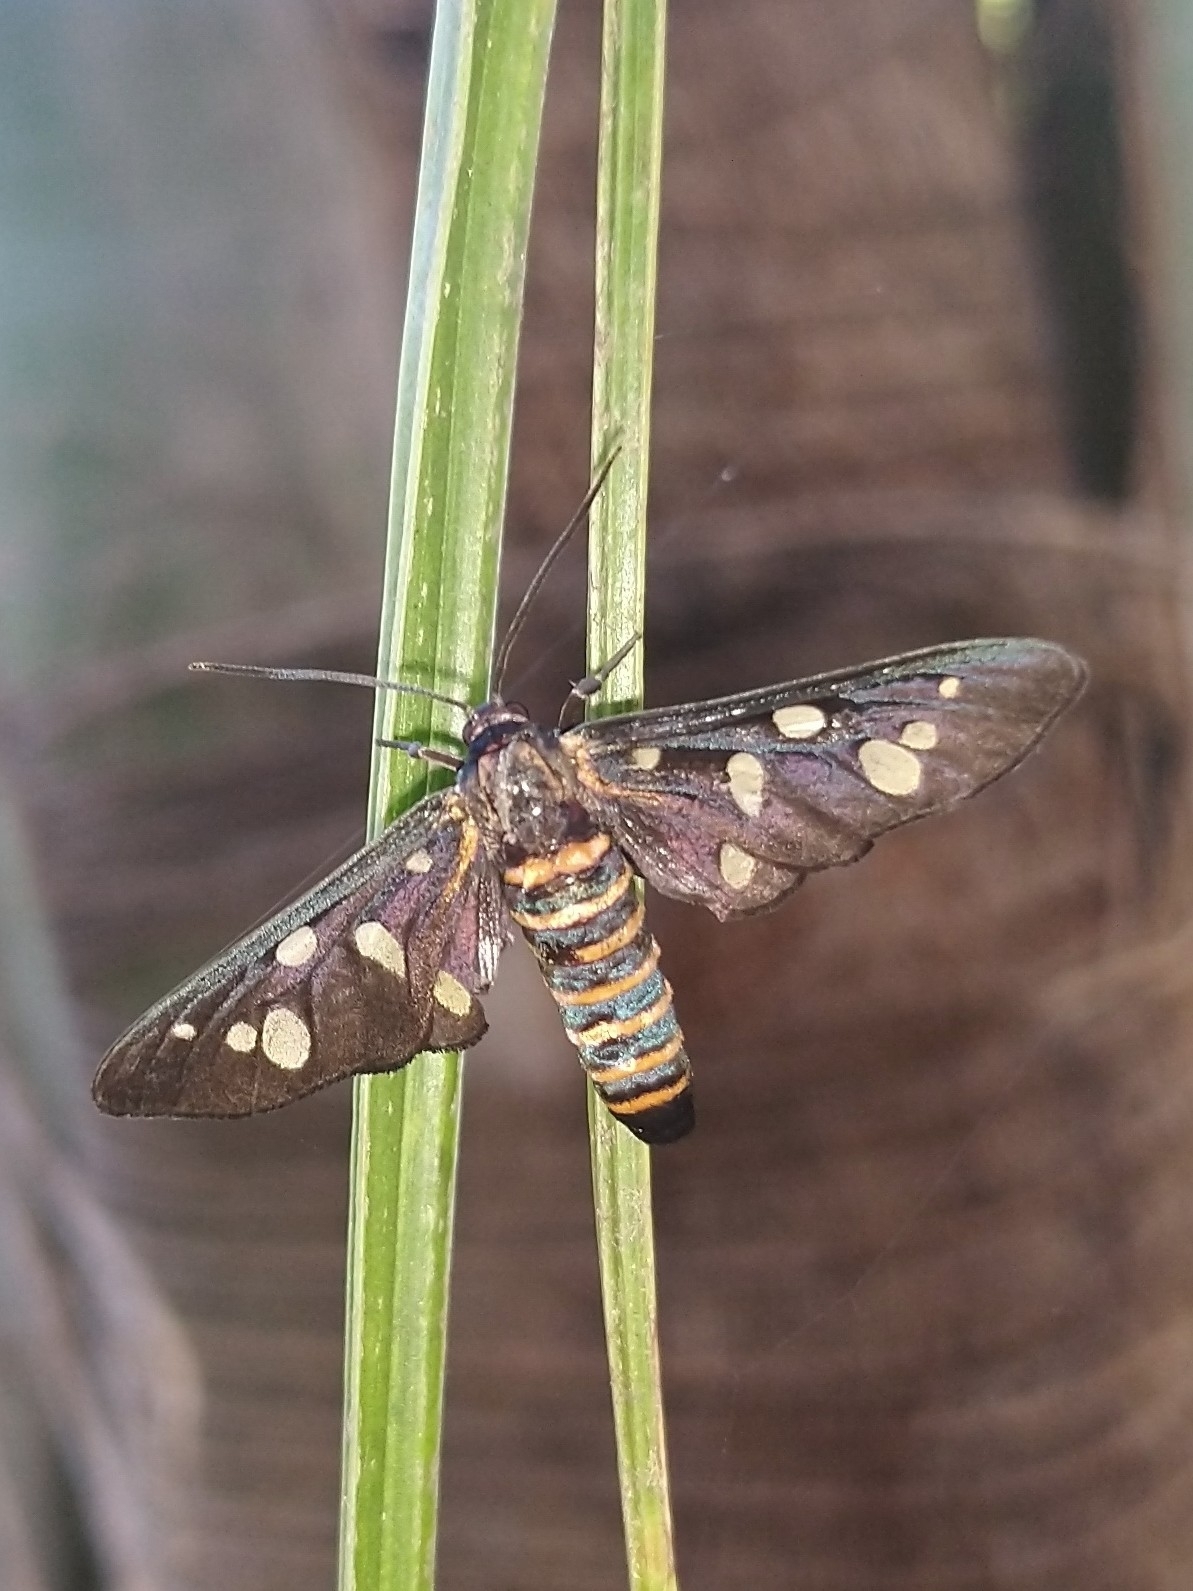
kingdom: Animalia
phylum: Arthropoda
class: Insecta
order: Lepidoptera
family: Erebidae
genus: Amata
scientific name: Amata passalis
